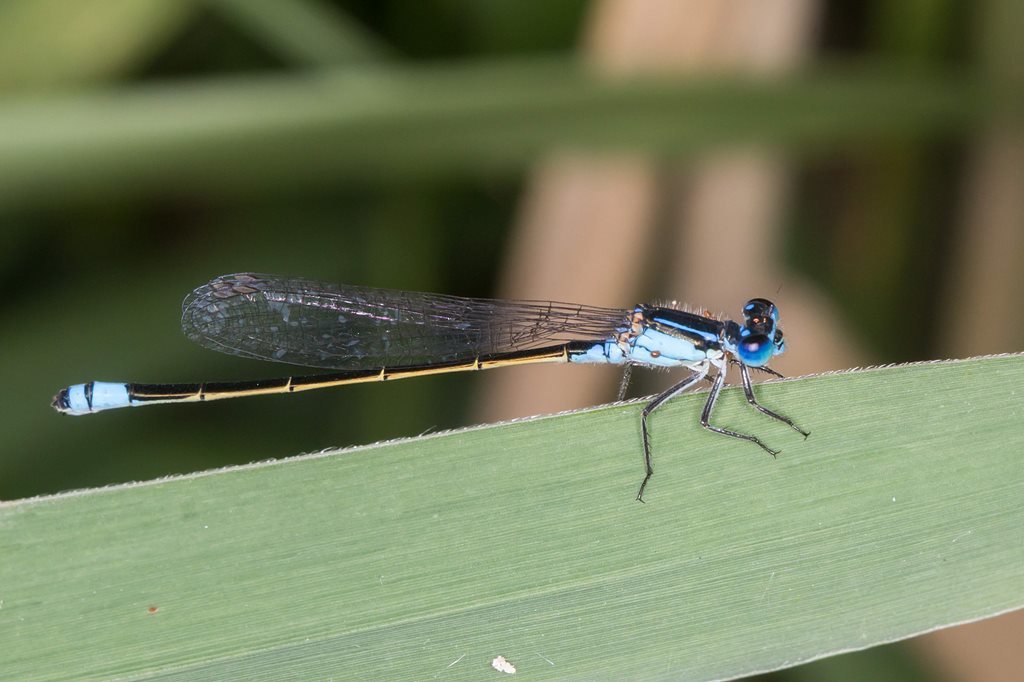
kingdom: Animalia
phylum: Arthropoda
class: Insecta
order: Odonata
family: Coenagrionidae
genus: Ischnura
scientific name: Ischnura heterosticta
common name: Common bluetail
